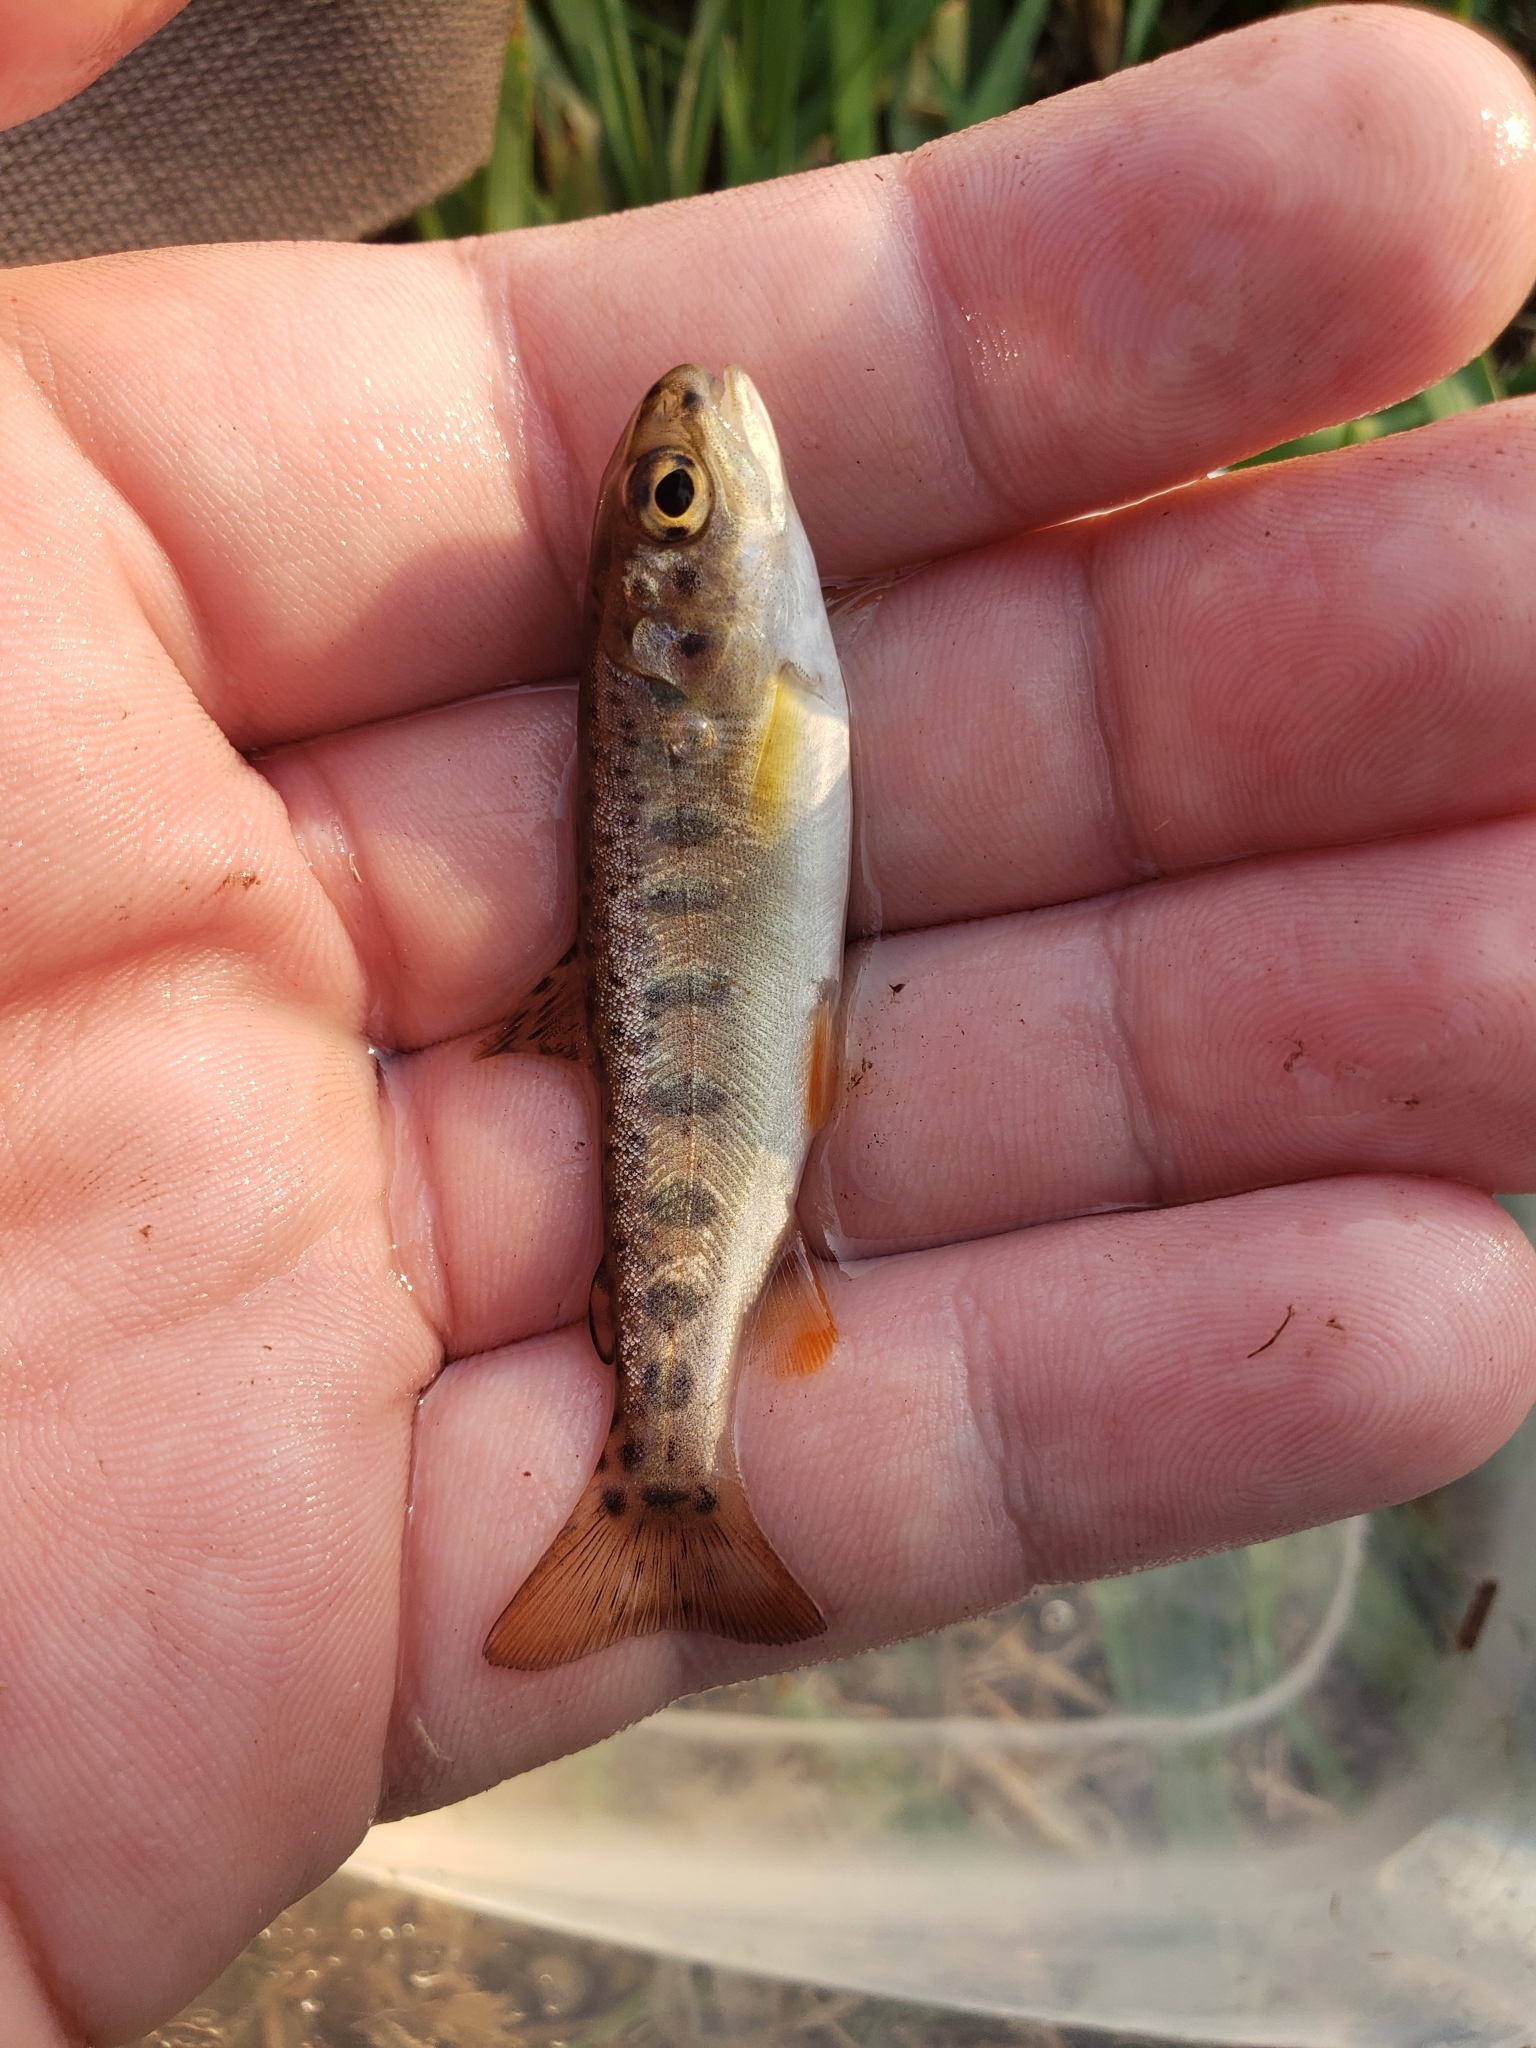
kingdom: Animalia
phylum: Chordata
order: Salmoniformes
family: Salmonidae
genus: Oncorhynchus
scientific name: Oncorhynchus
